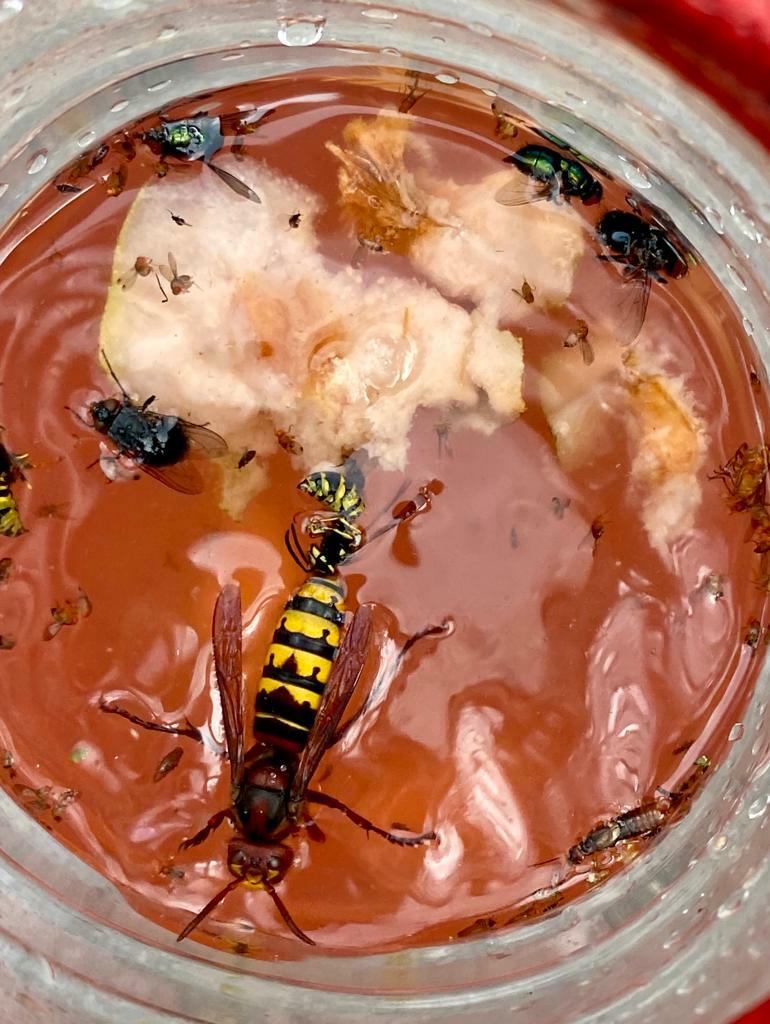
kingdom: Animalia
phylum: Arthropoda
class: Insecta
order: Hymenoptera
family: Vespidae
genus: Vespa
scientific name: Vespa crabro
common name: Hornet
